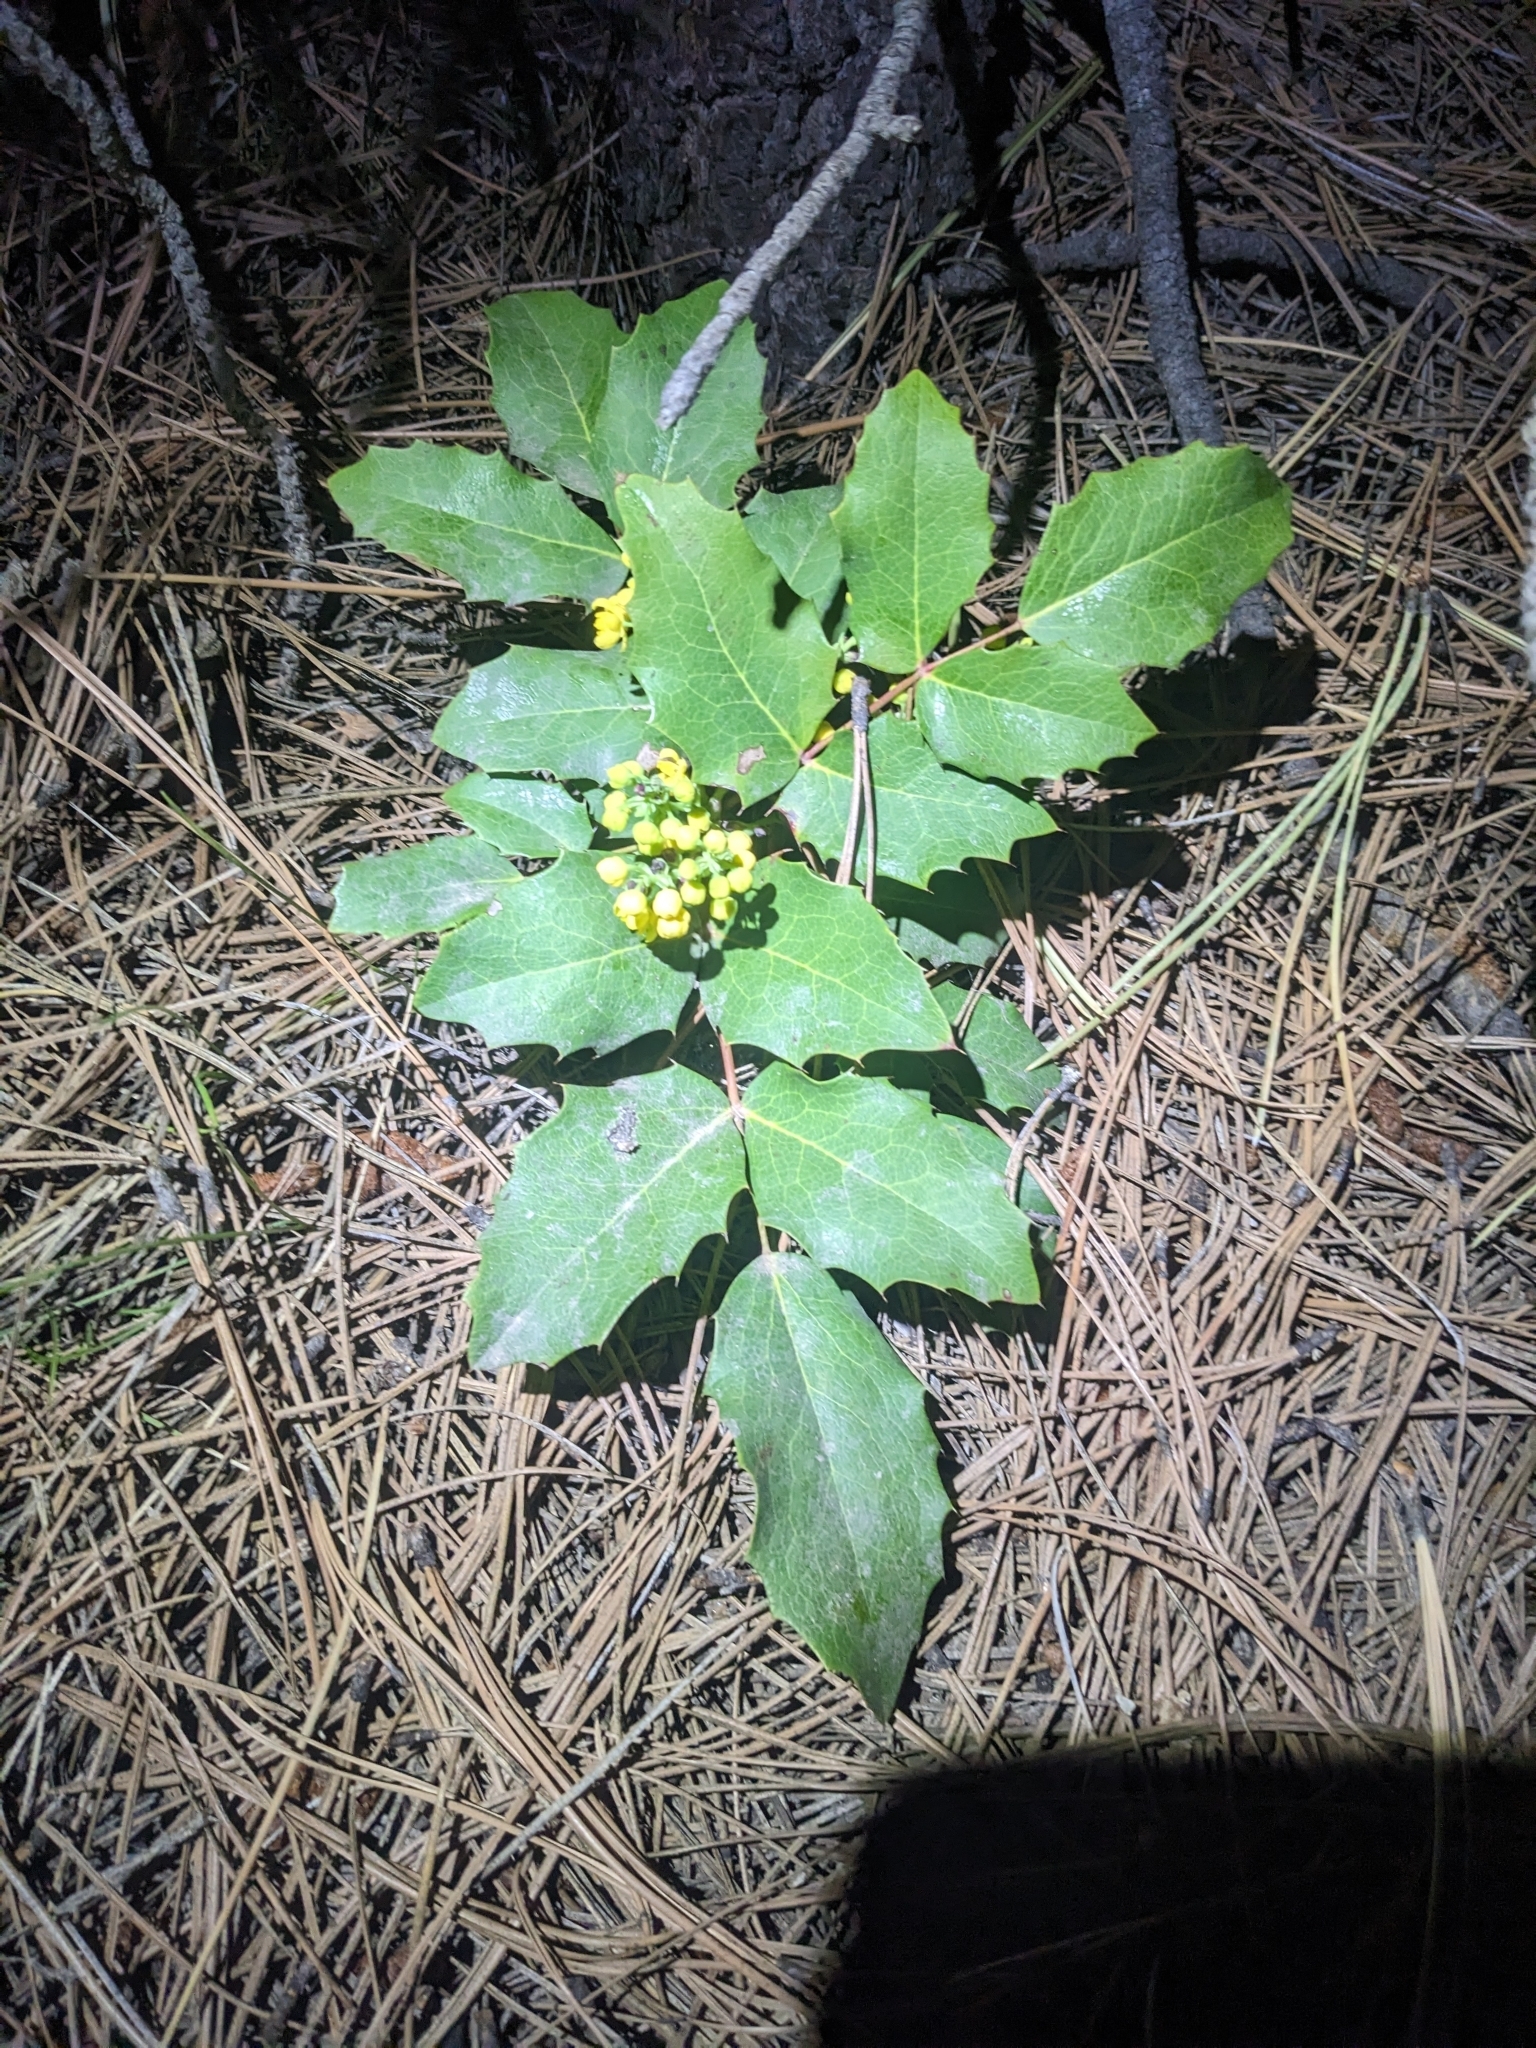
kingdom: Plantae
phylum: Tracheophyta
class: Magnoliopsida
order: Ranunculales
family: Berberidaceae
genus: Mahonia
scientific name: Mahonia repens
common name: Creeping oregon-grape
